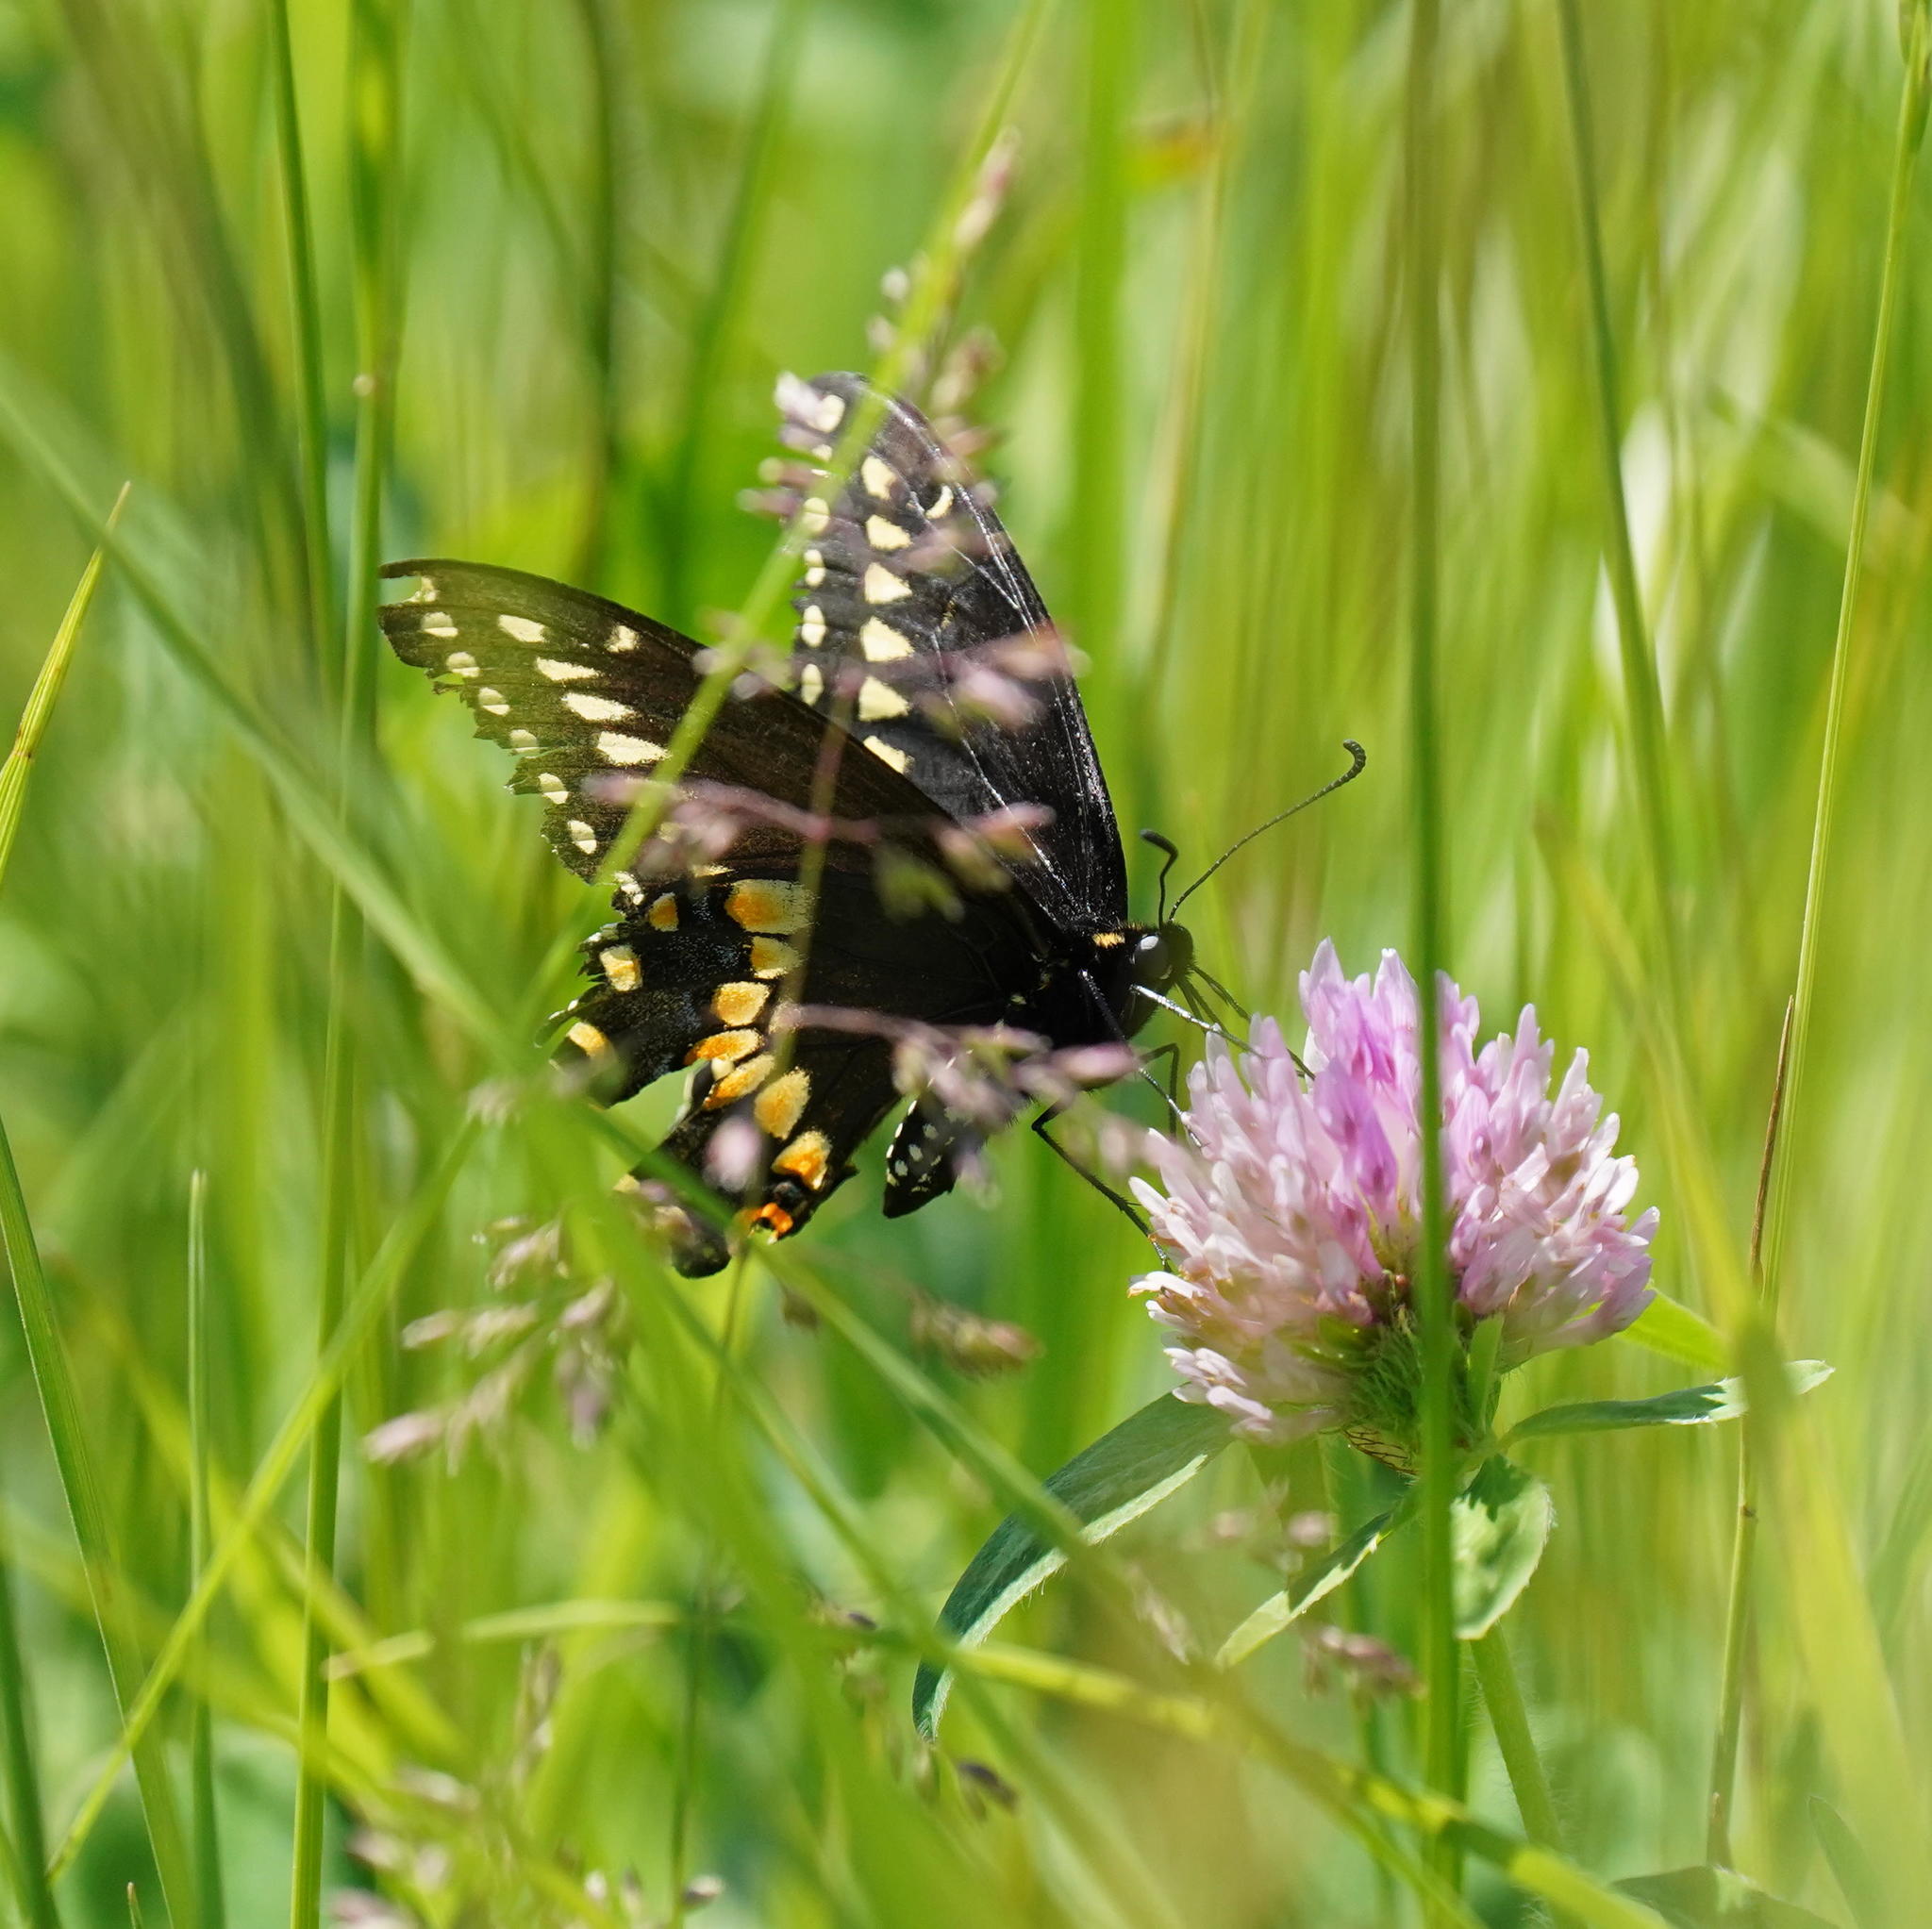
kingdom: Animalia
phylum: Arthropoda
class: Insecta
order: Lepidoptera
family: Papilionidae
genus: Papilio
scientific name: Papilio polyxenes
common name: Black swallowtail
